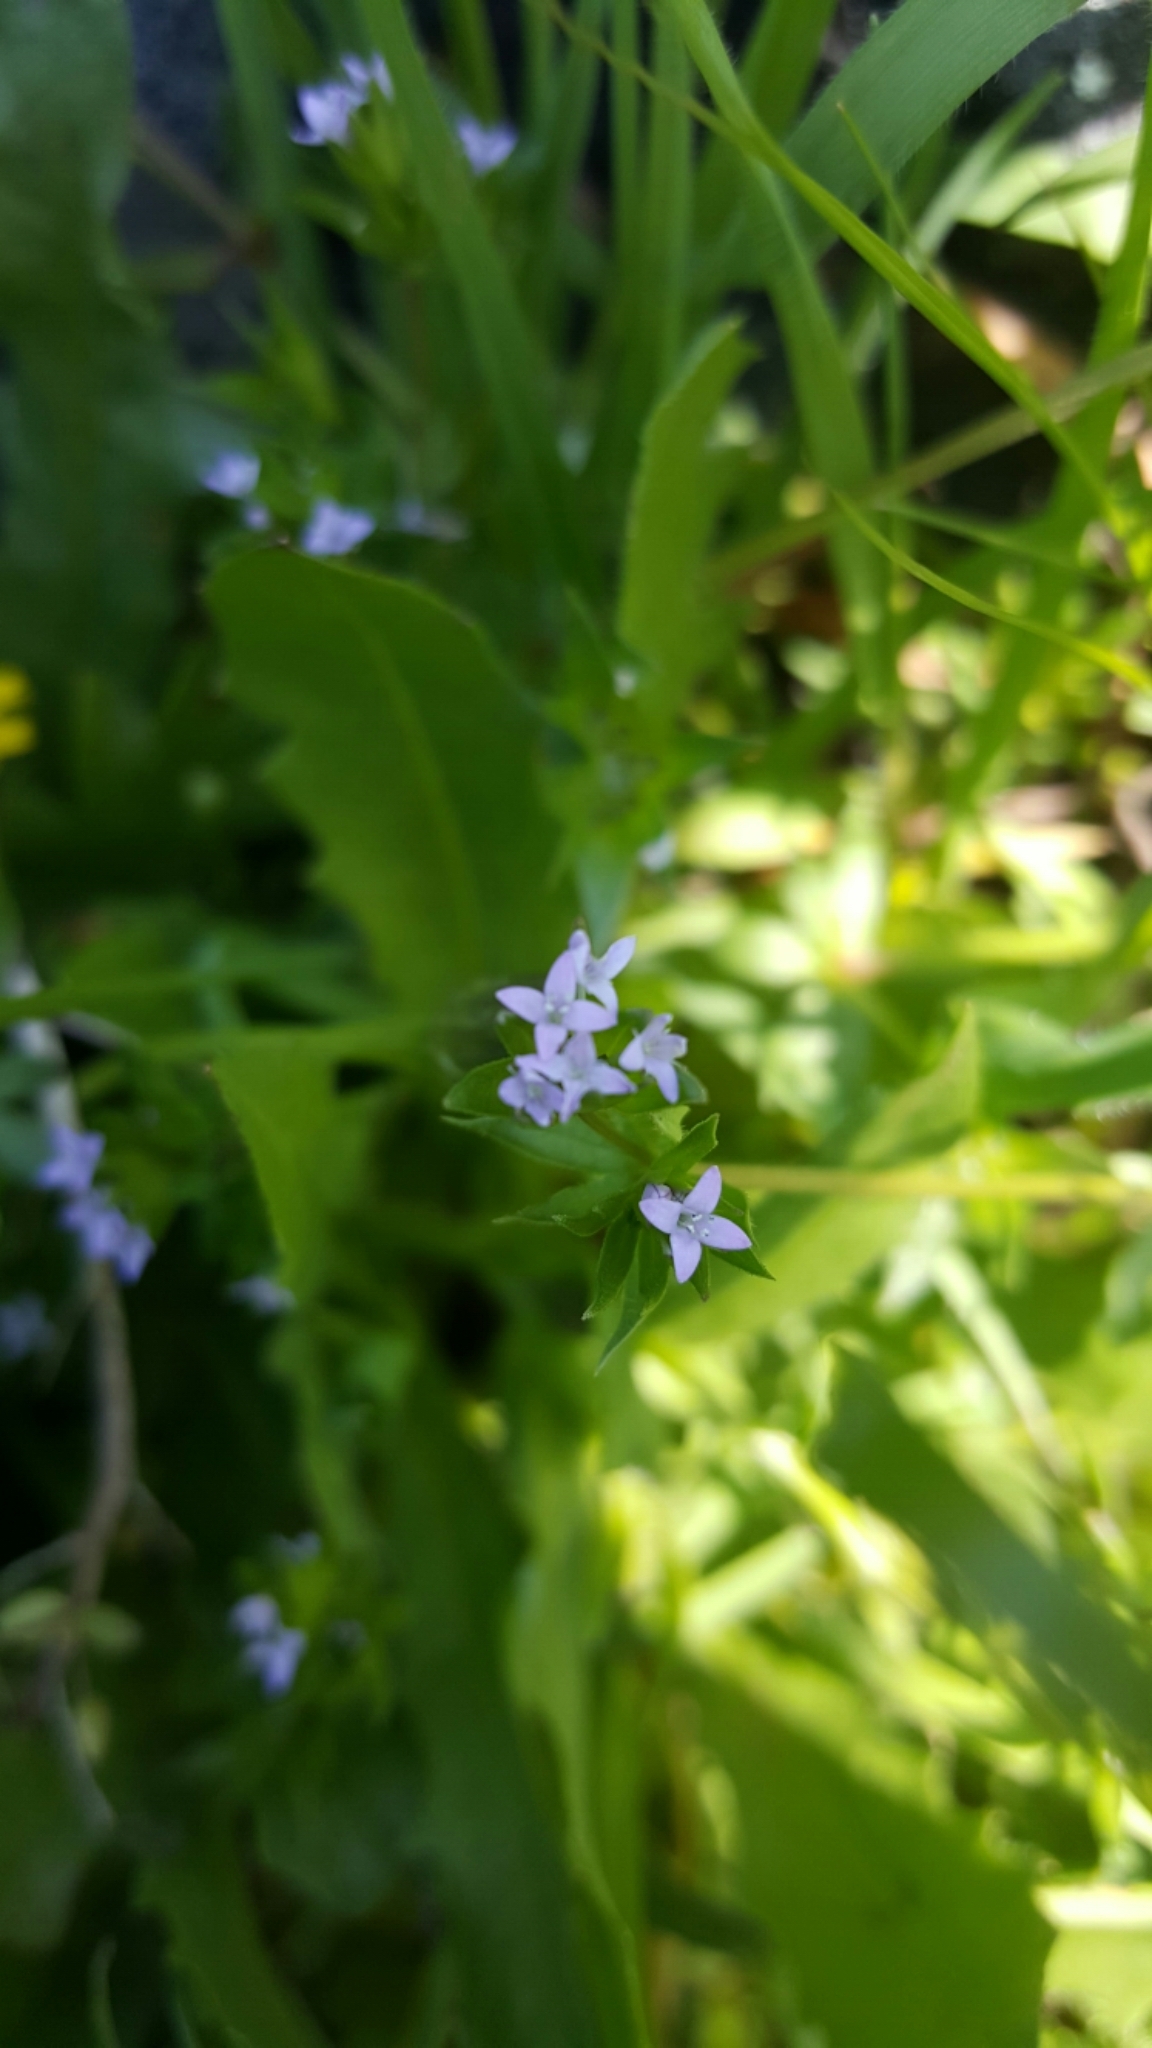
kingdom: Plantae
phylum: Tracheophyta
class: Magnoliopsida
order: Gentianales
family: Rubiaceae
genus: Sherardia
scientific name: Sherardia arvensis
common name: Field madder
